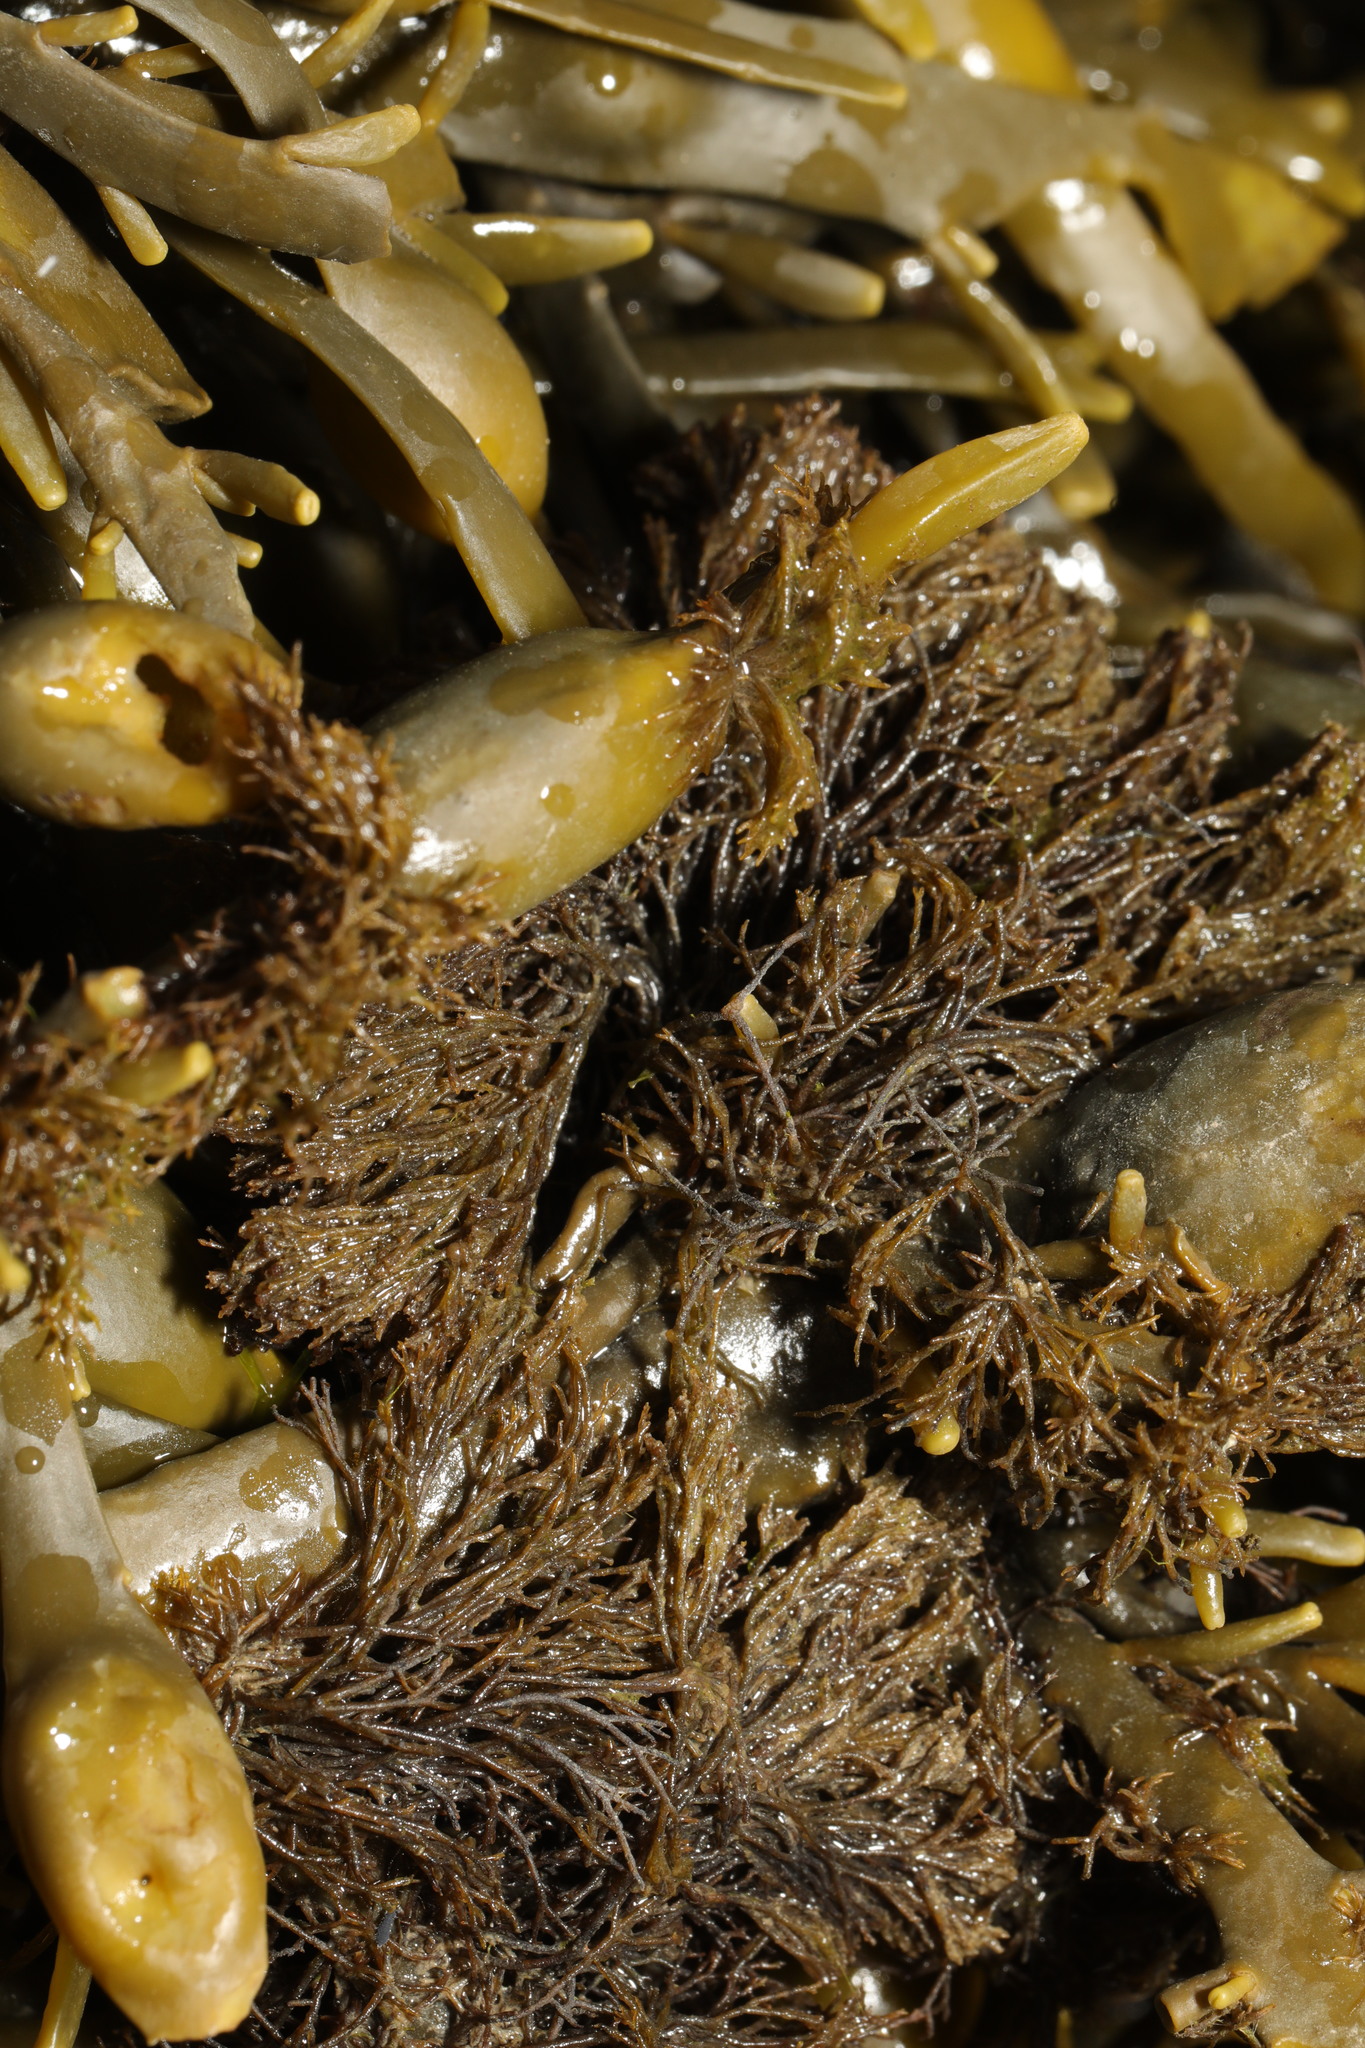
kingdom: Plantae
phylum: Rhodophyta
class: Florideophyceae
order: Ceramiales
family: Rhodomelaceae
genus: Vertebrata
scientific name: Vertebrata lanosa
